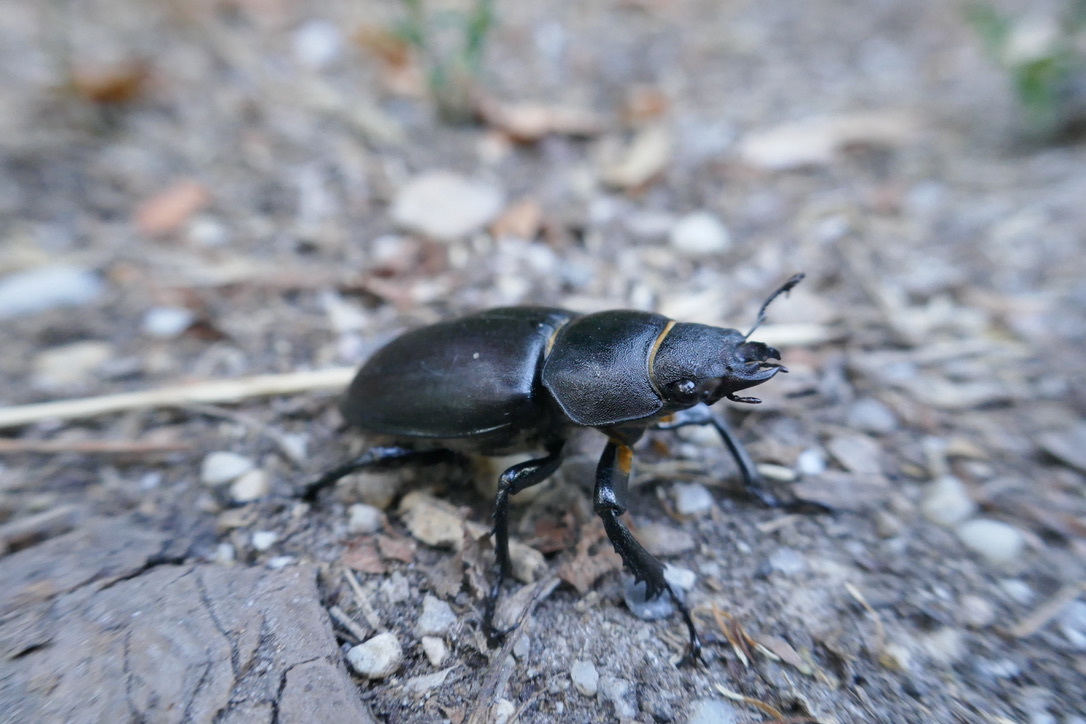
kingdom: Animalia
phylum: Arthropoda
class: Insecta
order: Coleoptera
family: Lucanidae
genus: Lucanus
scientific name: Lucanus cervus
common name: Stag beetle
